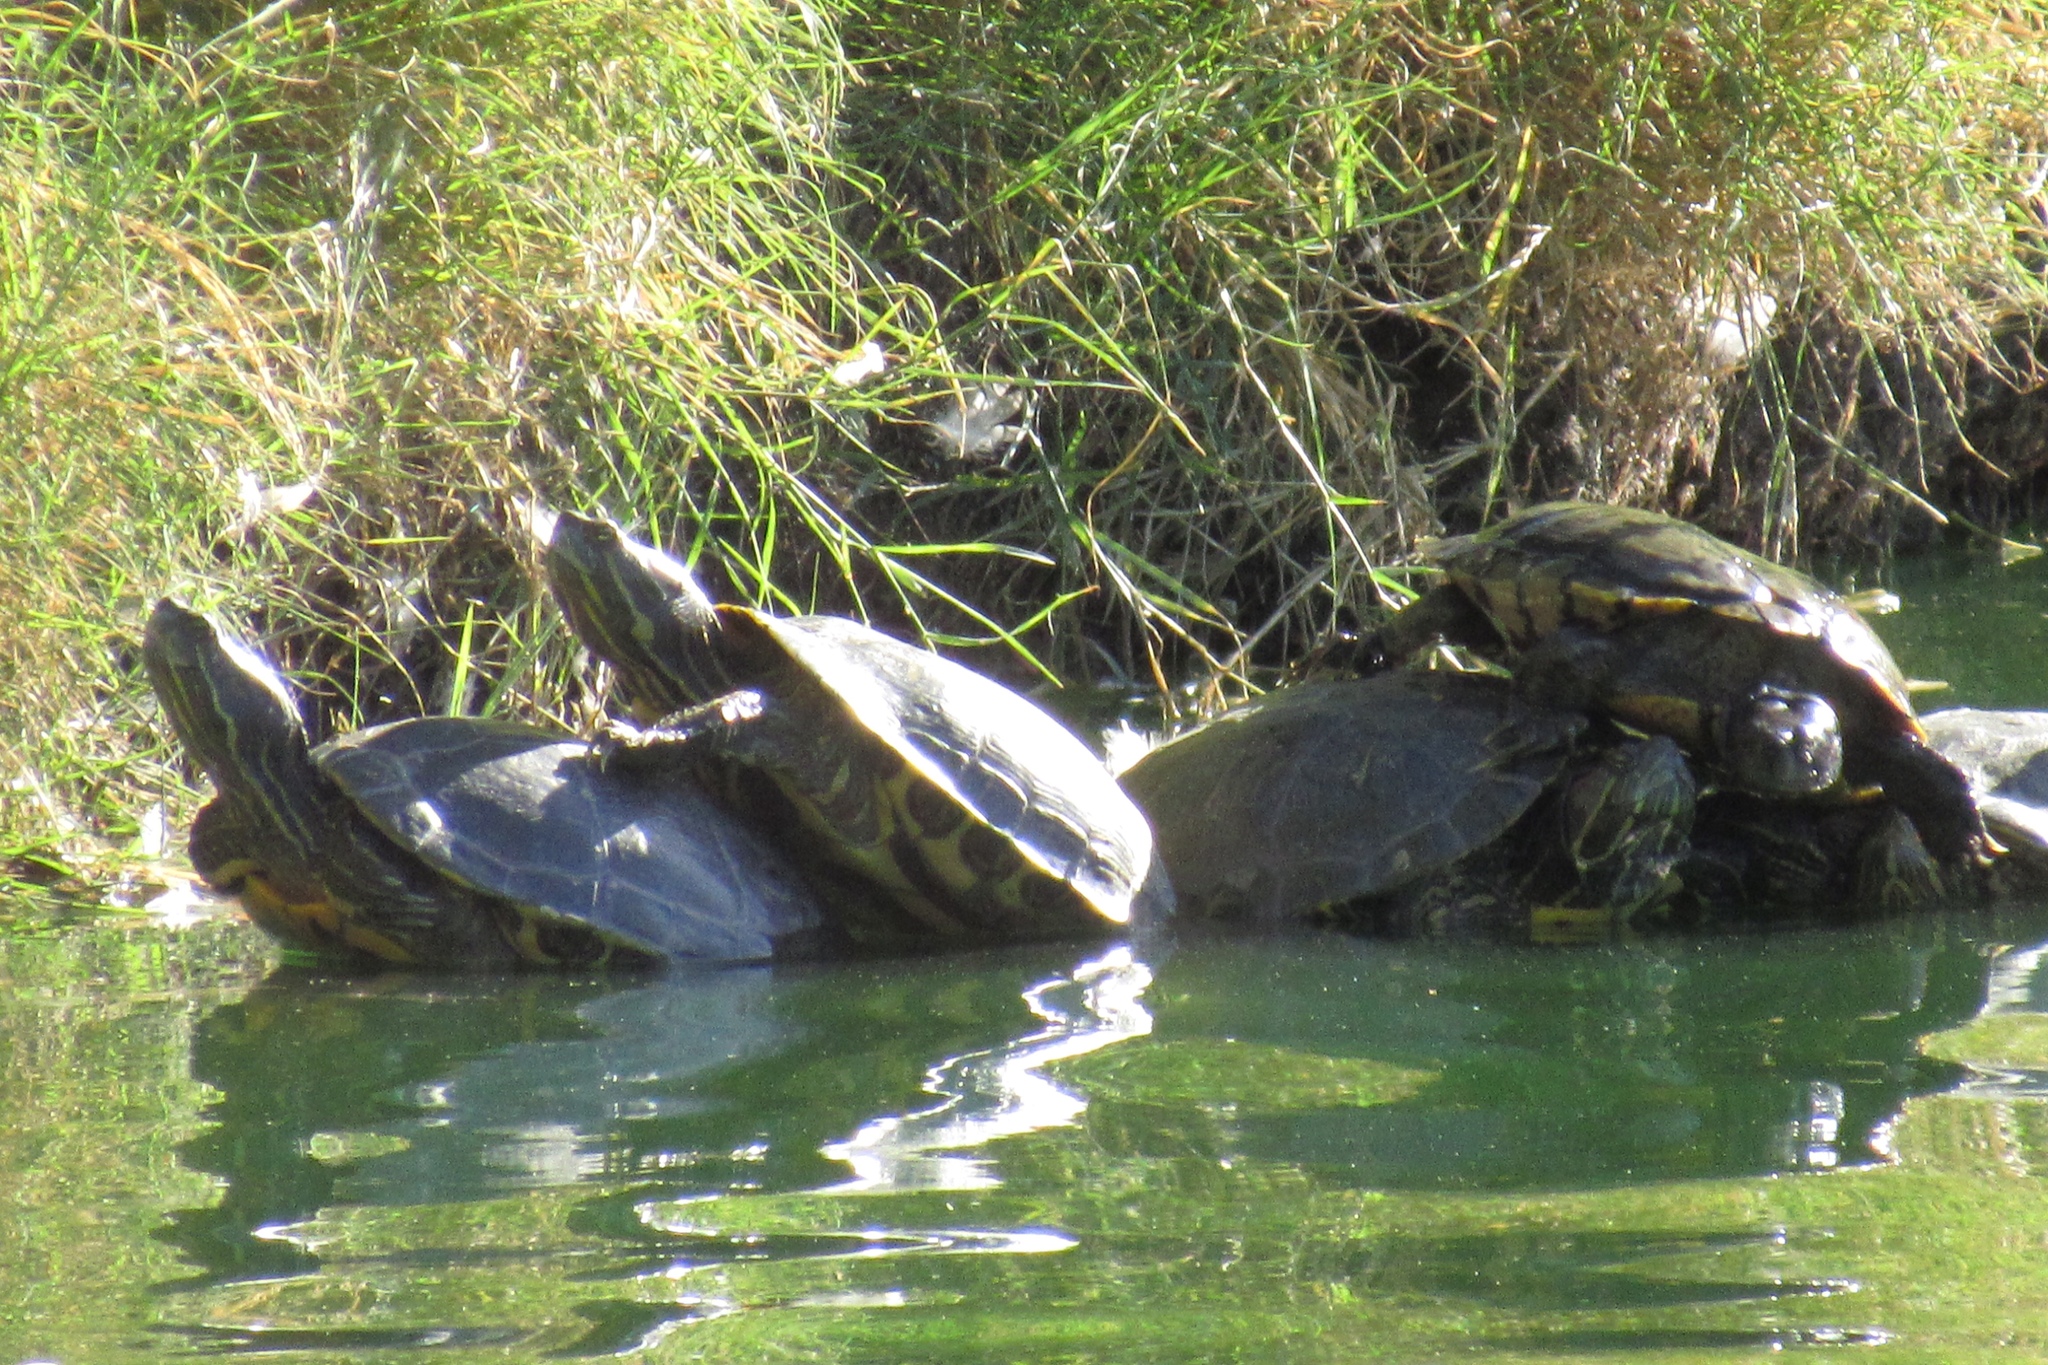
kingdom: Animalia
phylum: Chordata
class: Testudines
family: Emydidae
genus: Trachemys
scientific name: Trachemys scripta
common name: Slider
